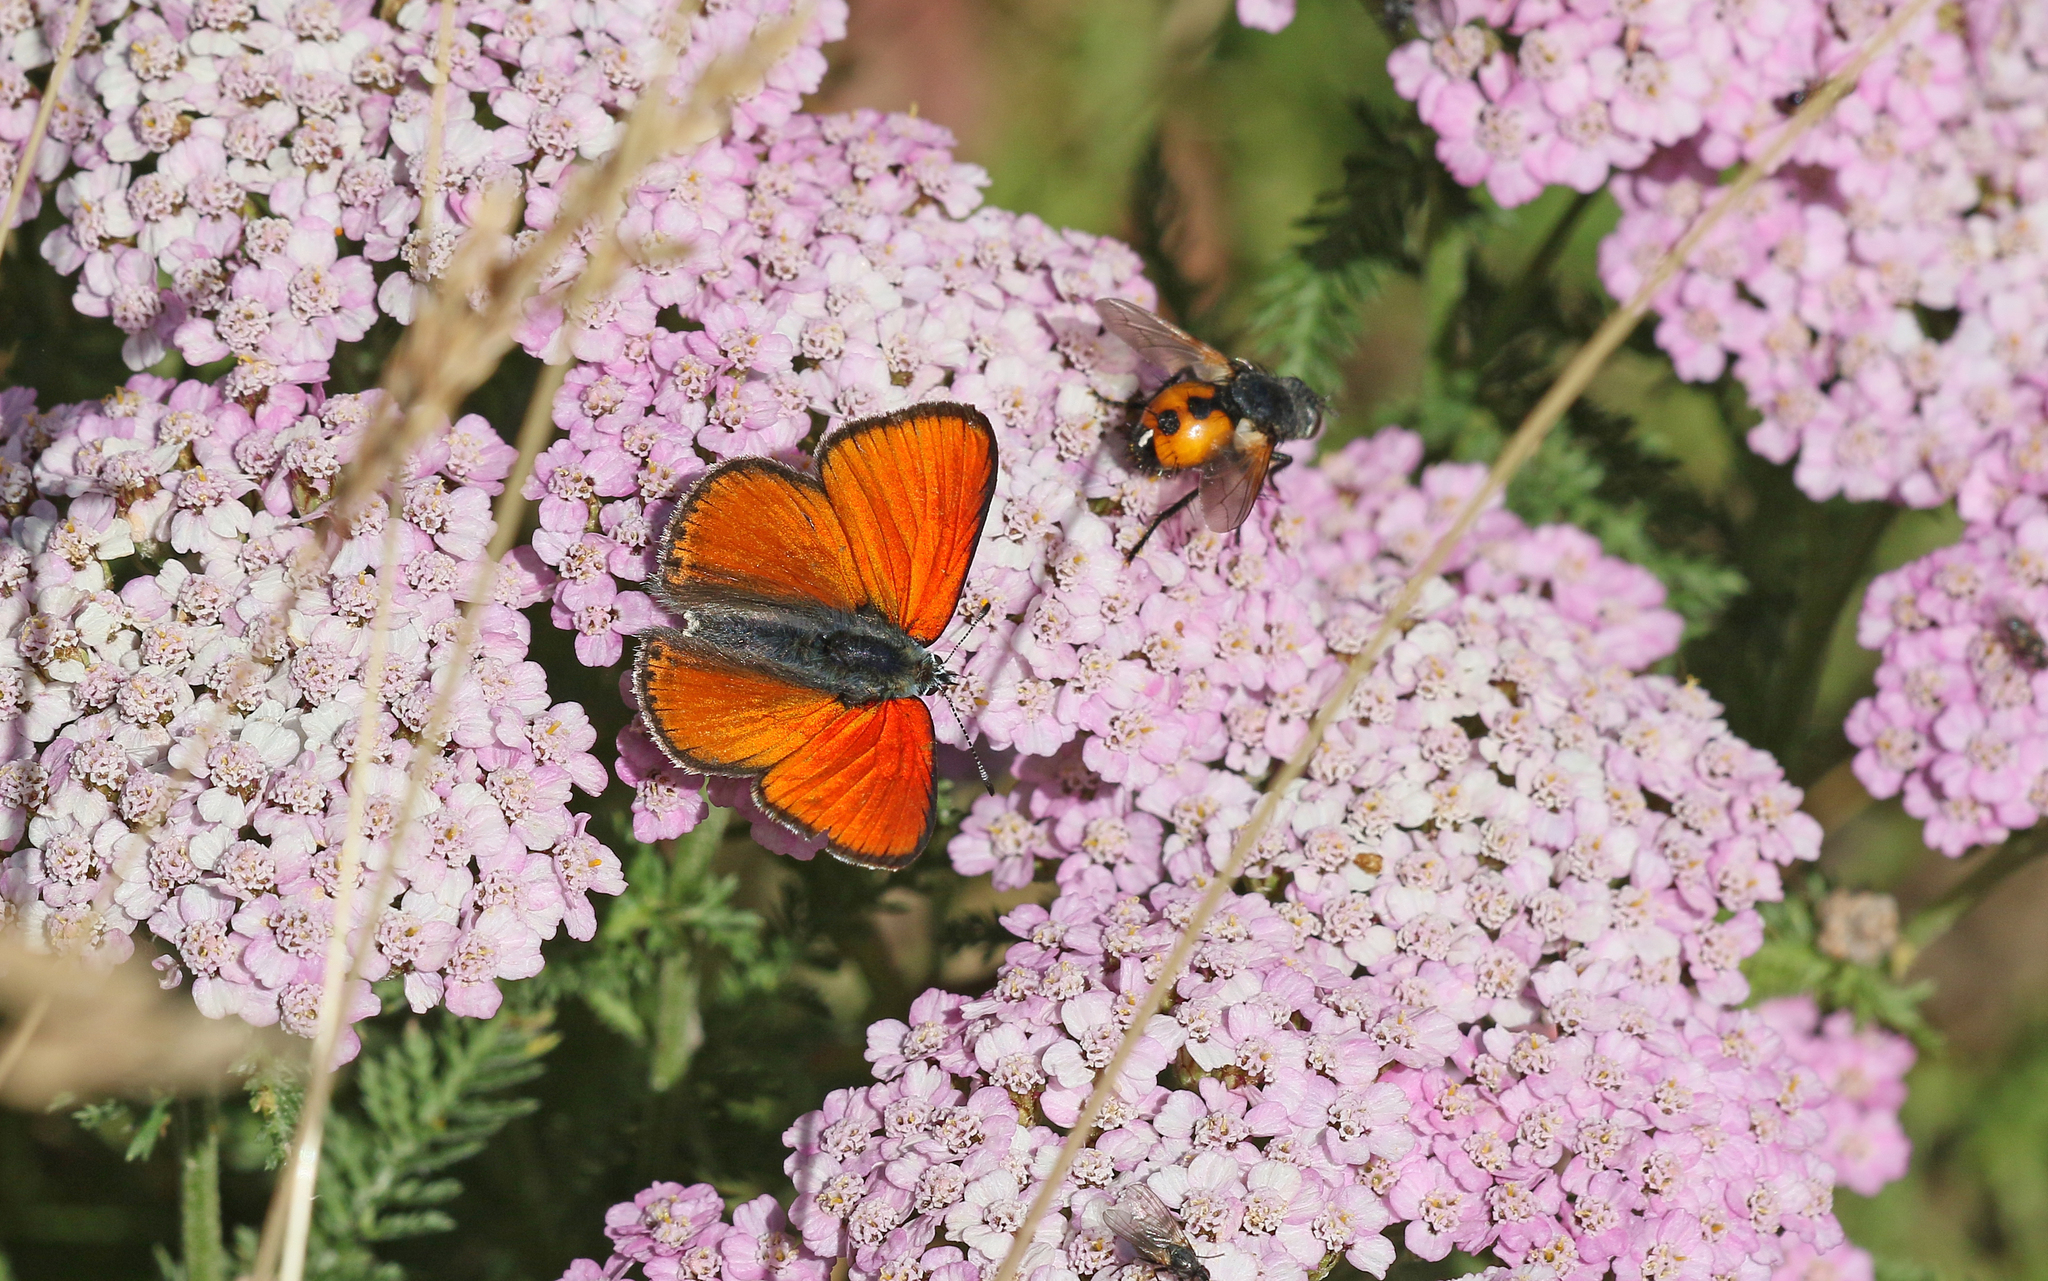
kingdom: Animalia
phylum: Arthropoda
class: Insecta
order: Lepidoptera
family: Lycaenidae
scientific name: Lycaenidae
